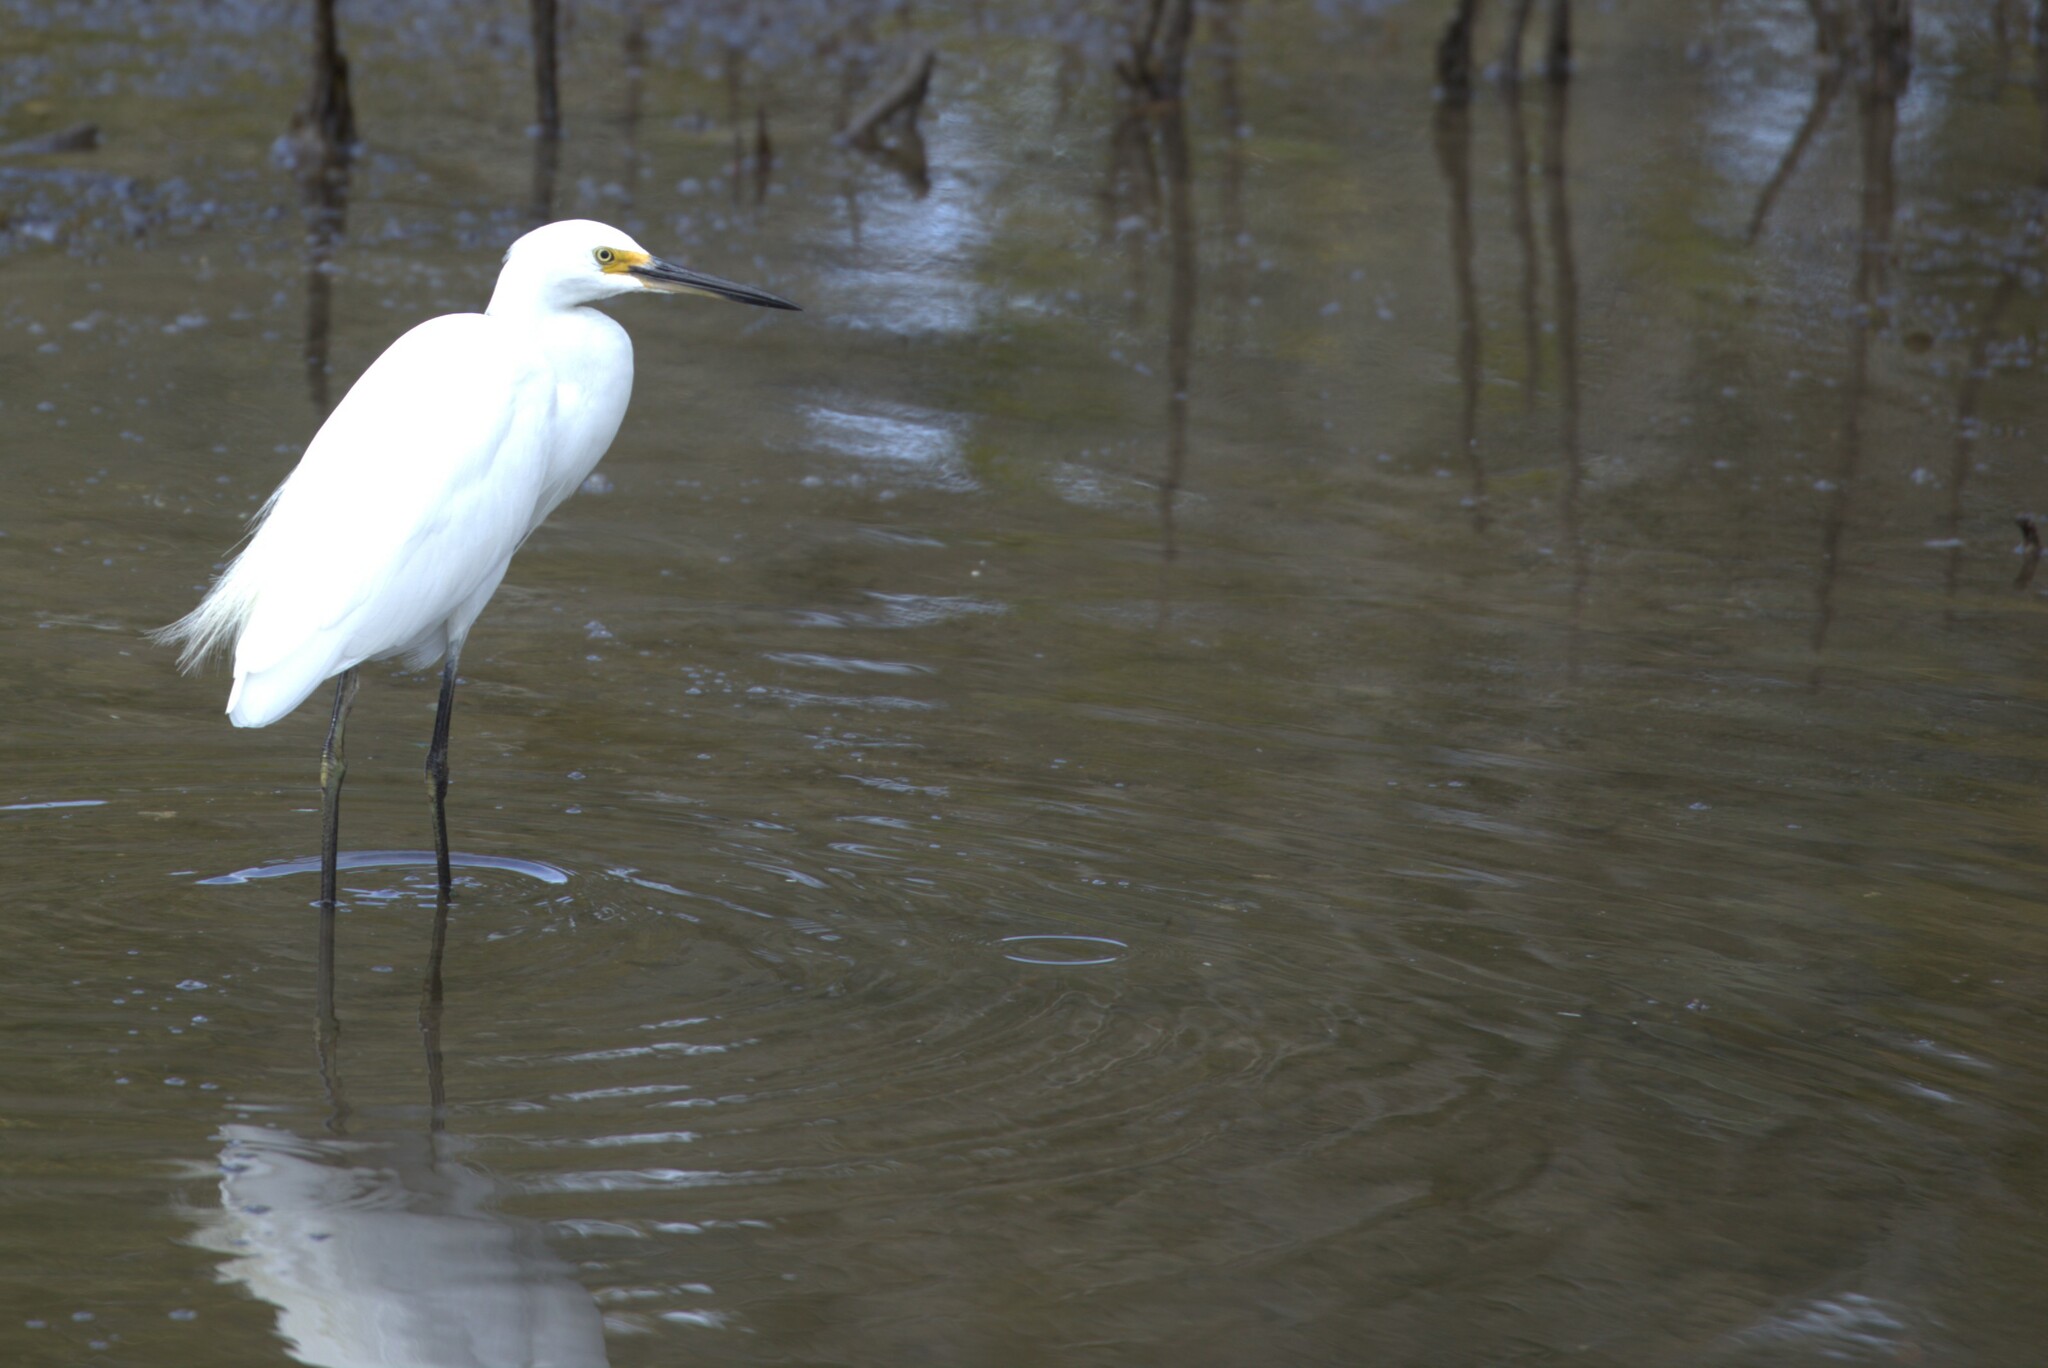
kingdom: Animalia
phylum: Chordata
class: Aves
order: Pelecaniformes
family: Ardeidae
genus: Egretta
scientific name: Egretta garzetta
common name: Little egret
